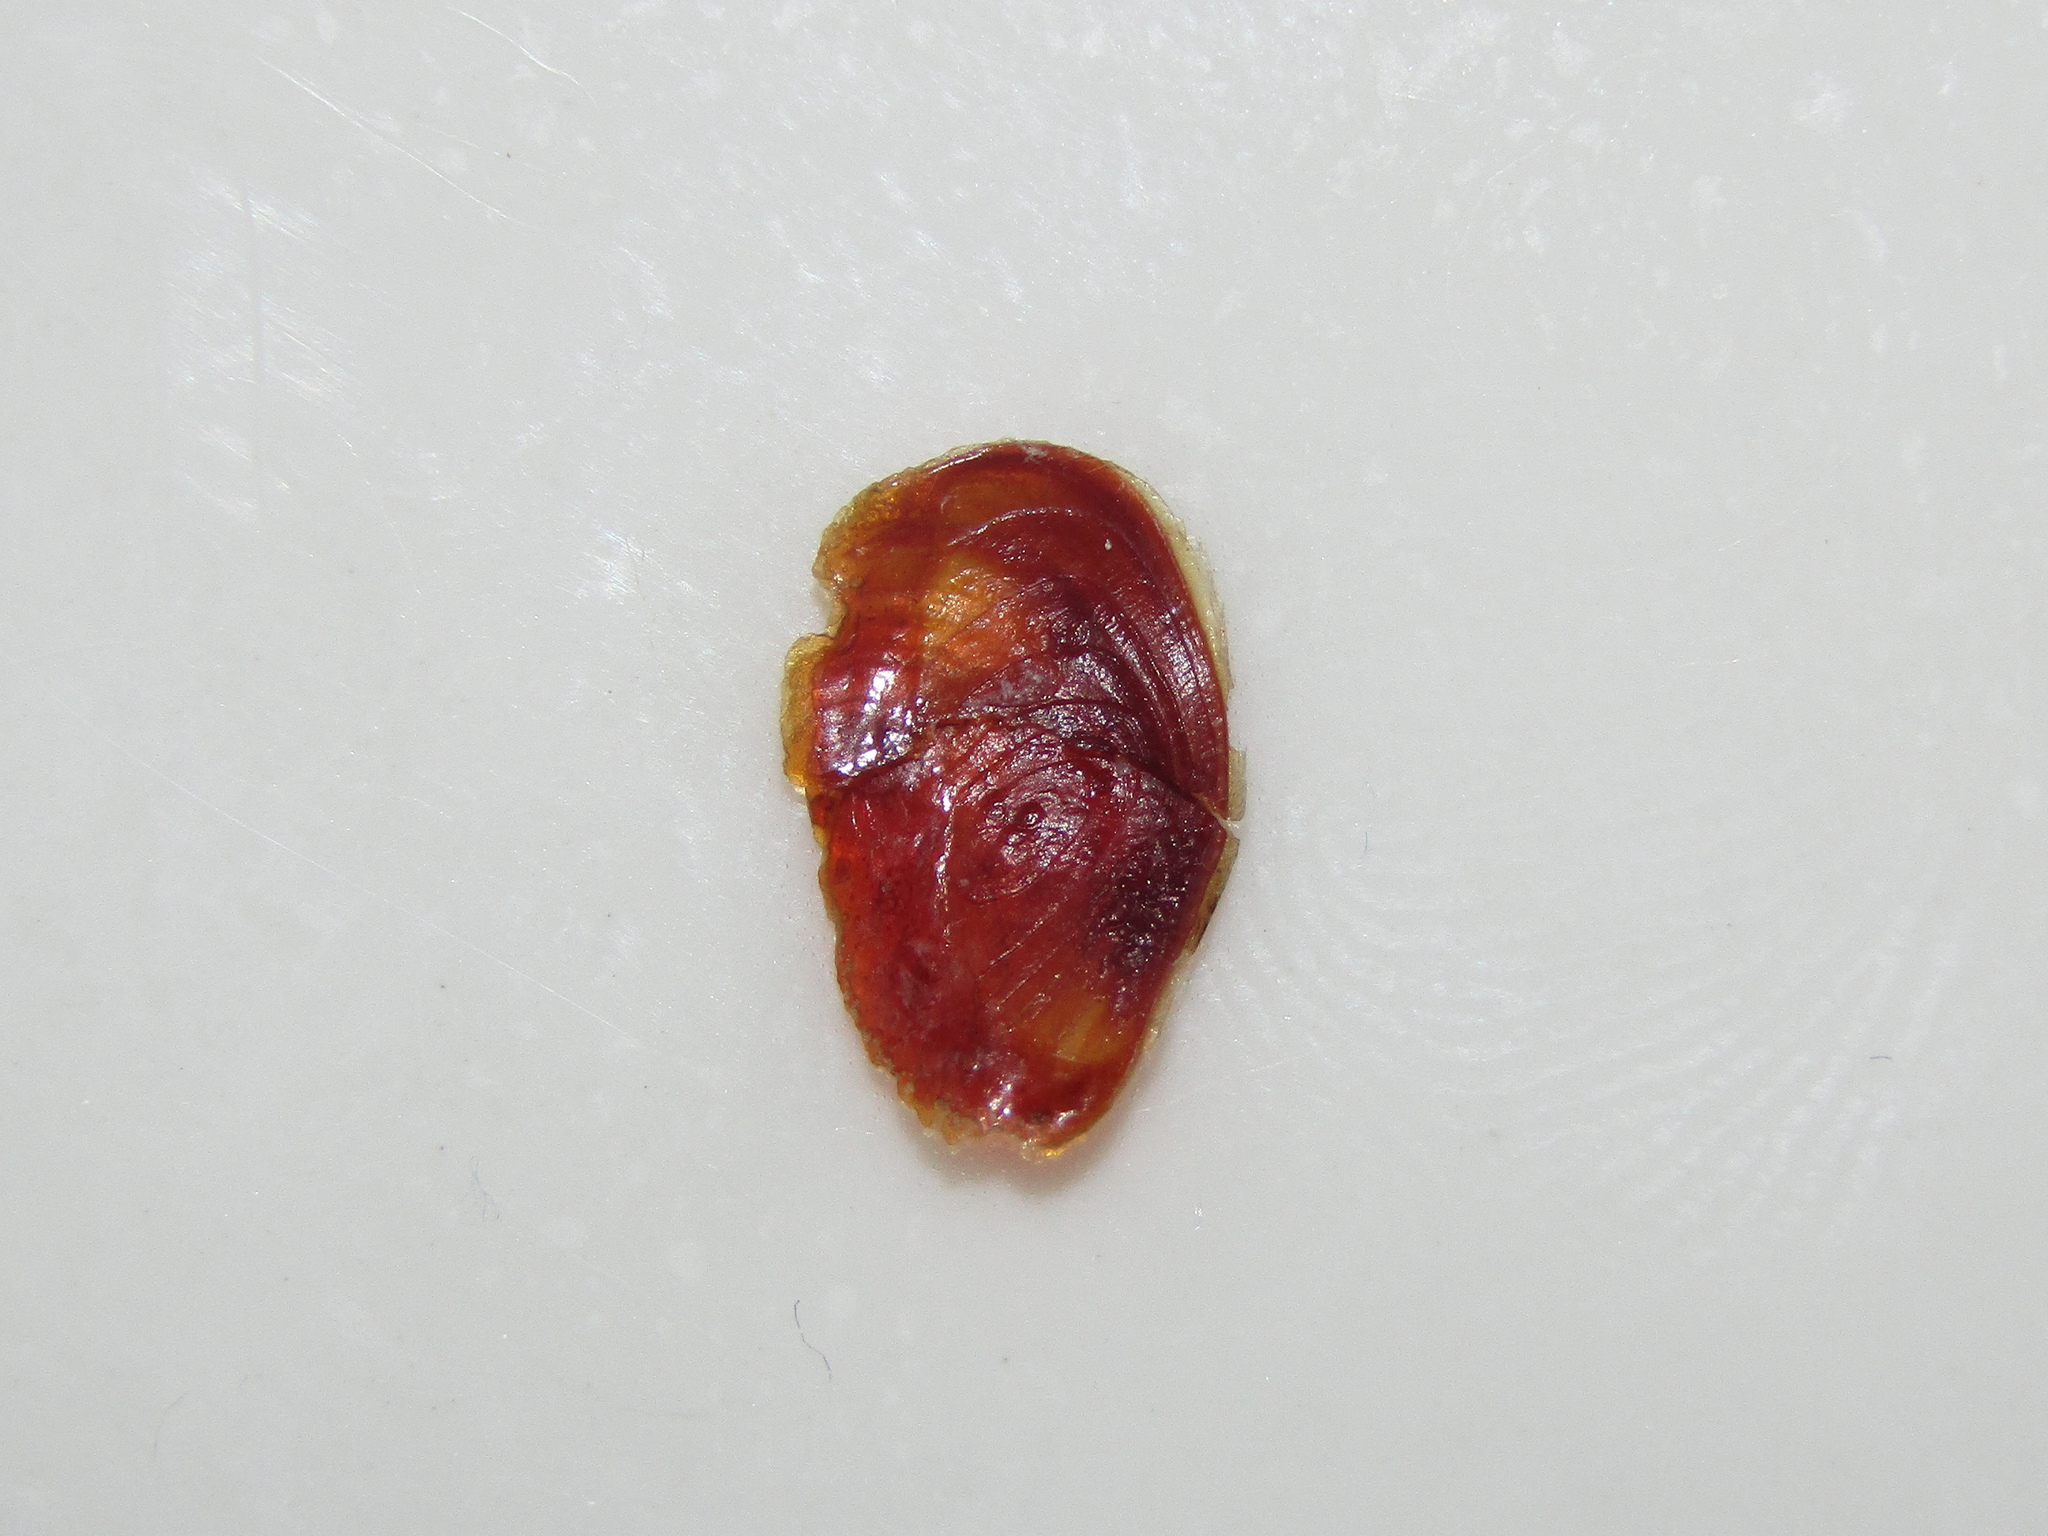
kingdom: Animalia
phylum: Mollusca
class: Gastropoda
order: Neogastropoda
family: Muricidae
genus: Zeatrophon
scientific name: Zeatrophon ambiguus
